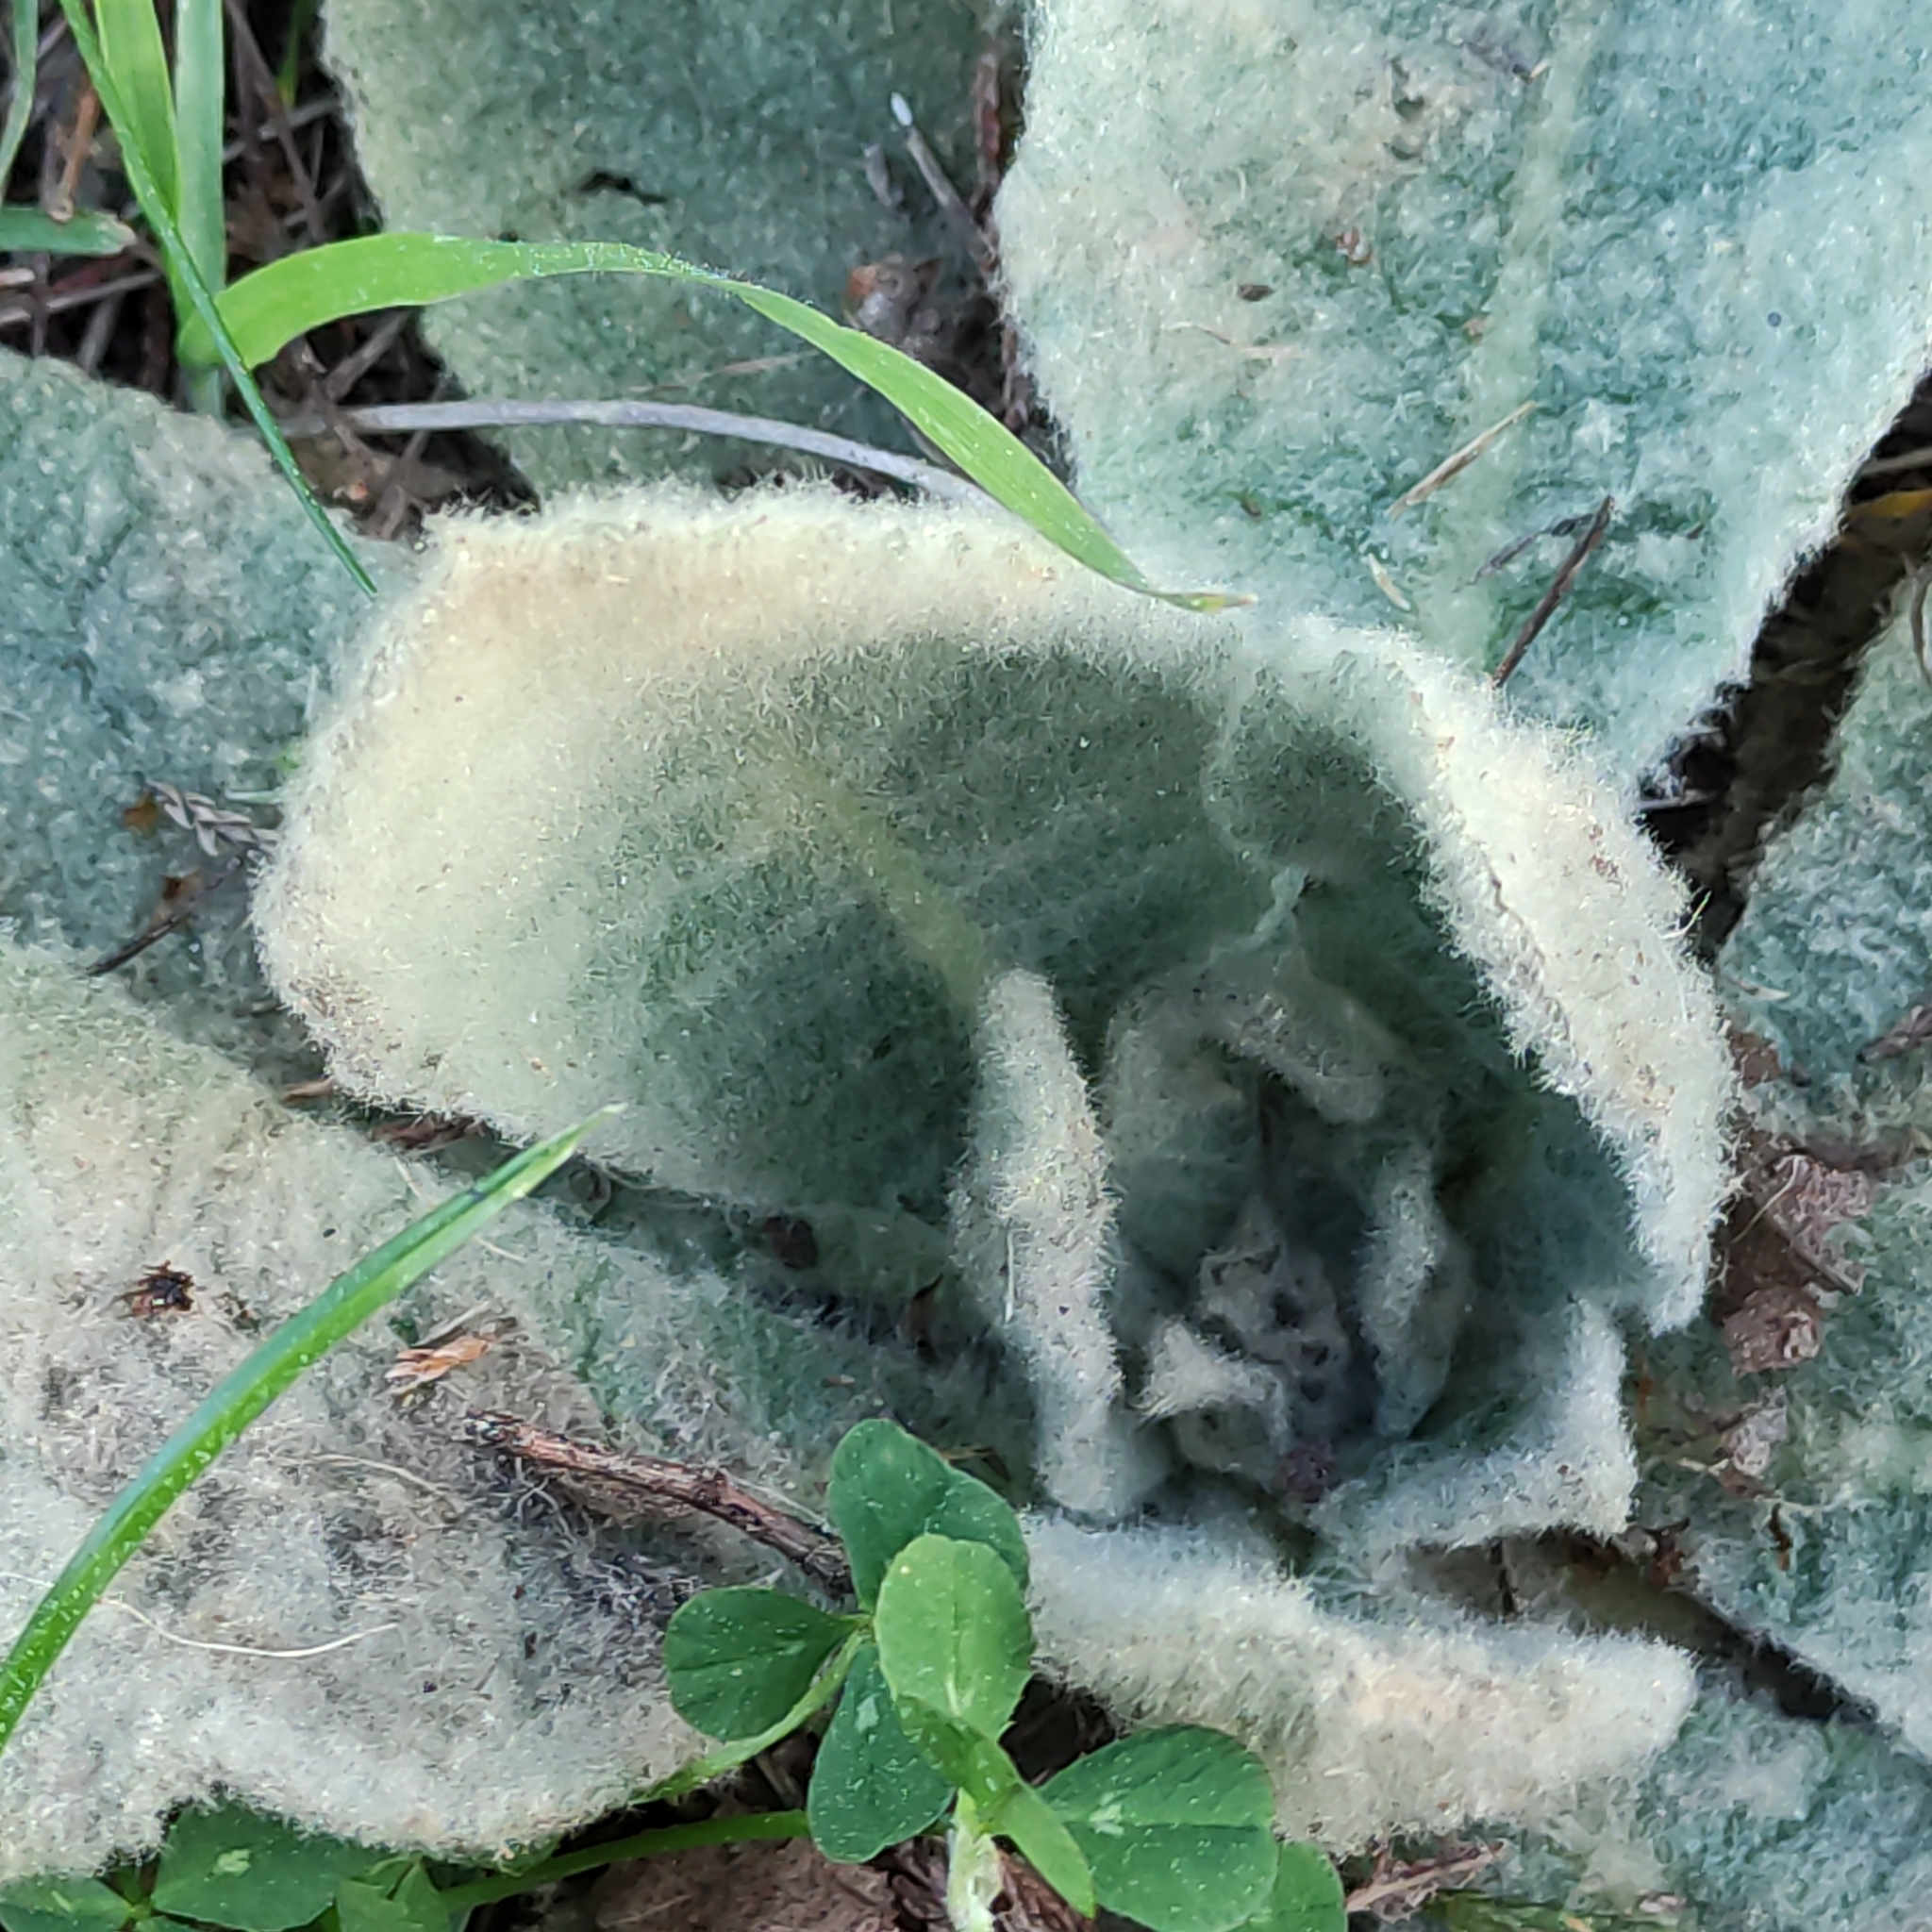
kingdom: Plantae
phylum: Tracheophyta
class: Magnoliopsida
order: Lamiales
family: Scrophulariaceae
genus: Verbascum
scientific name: Verbascum thapsus
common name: Common mullein
